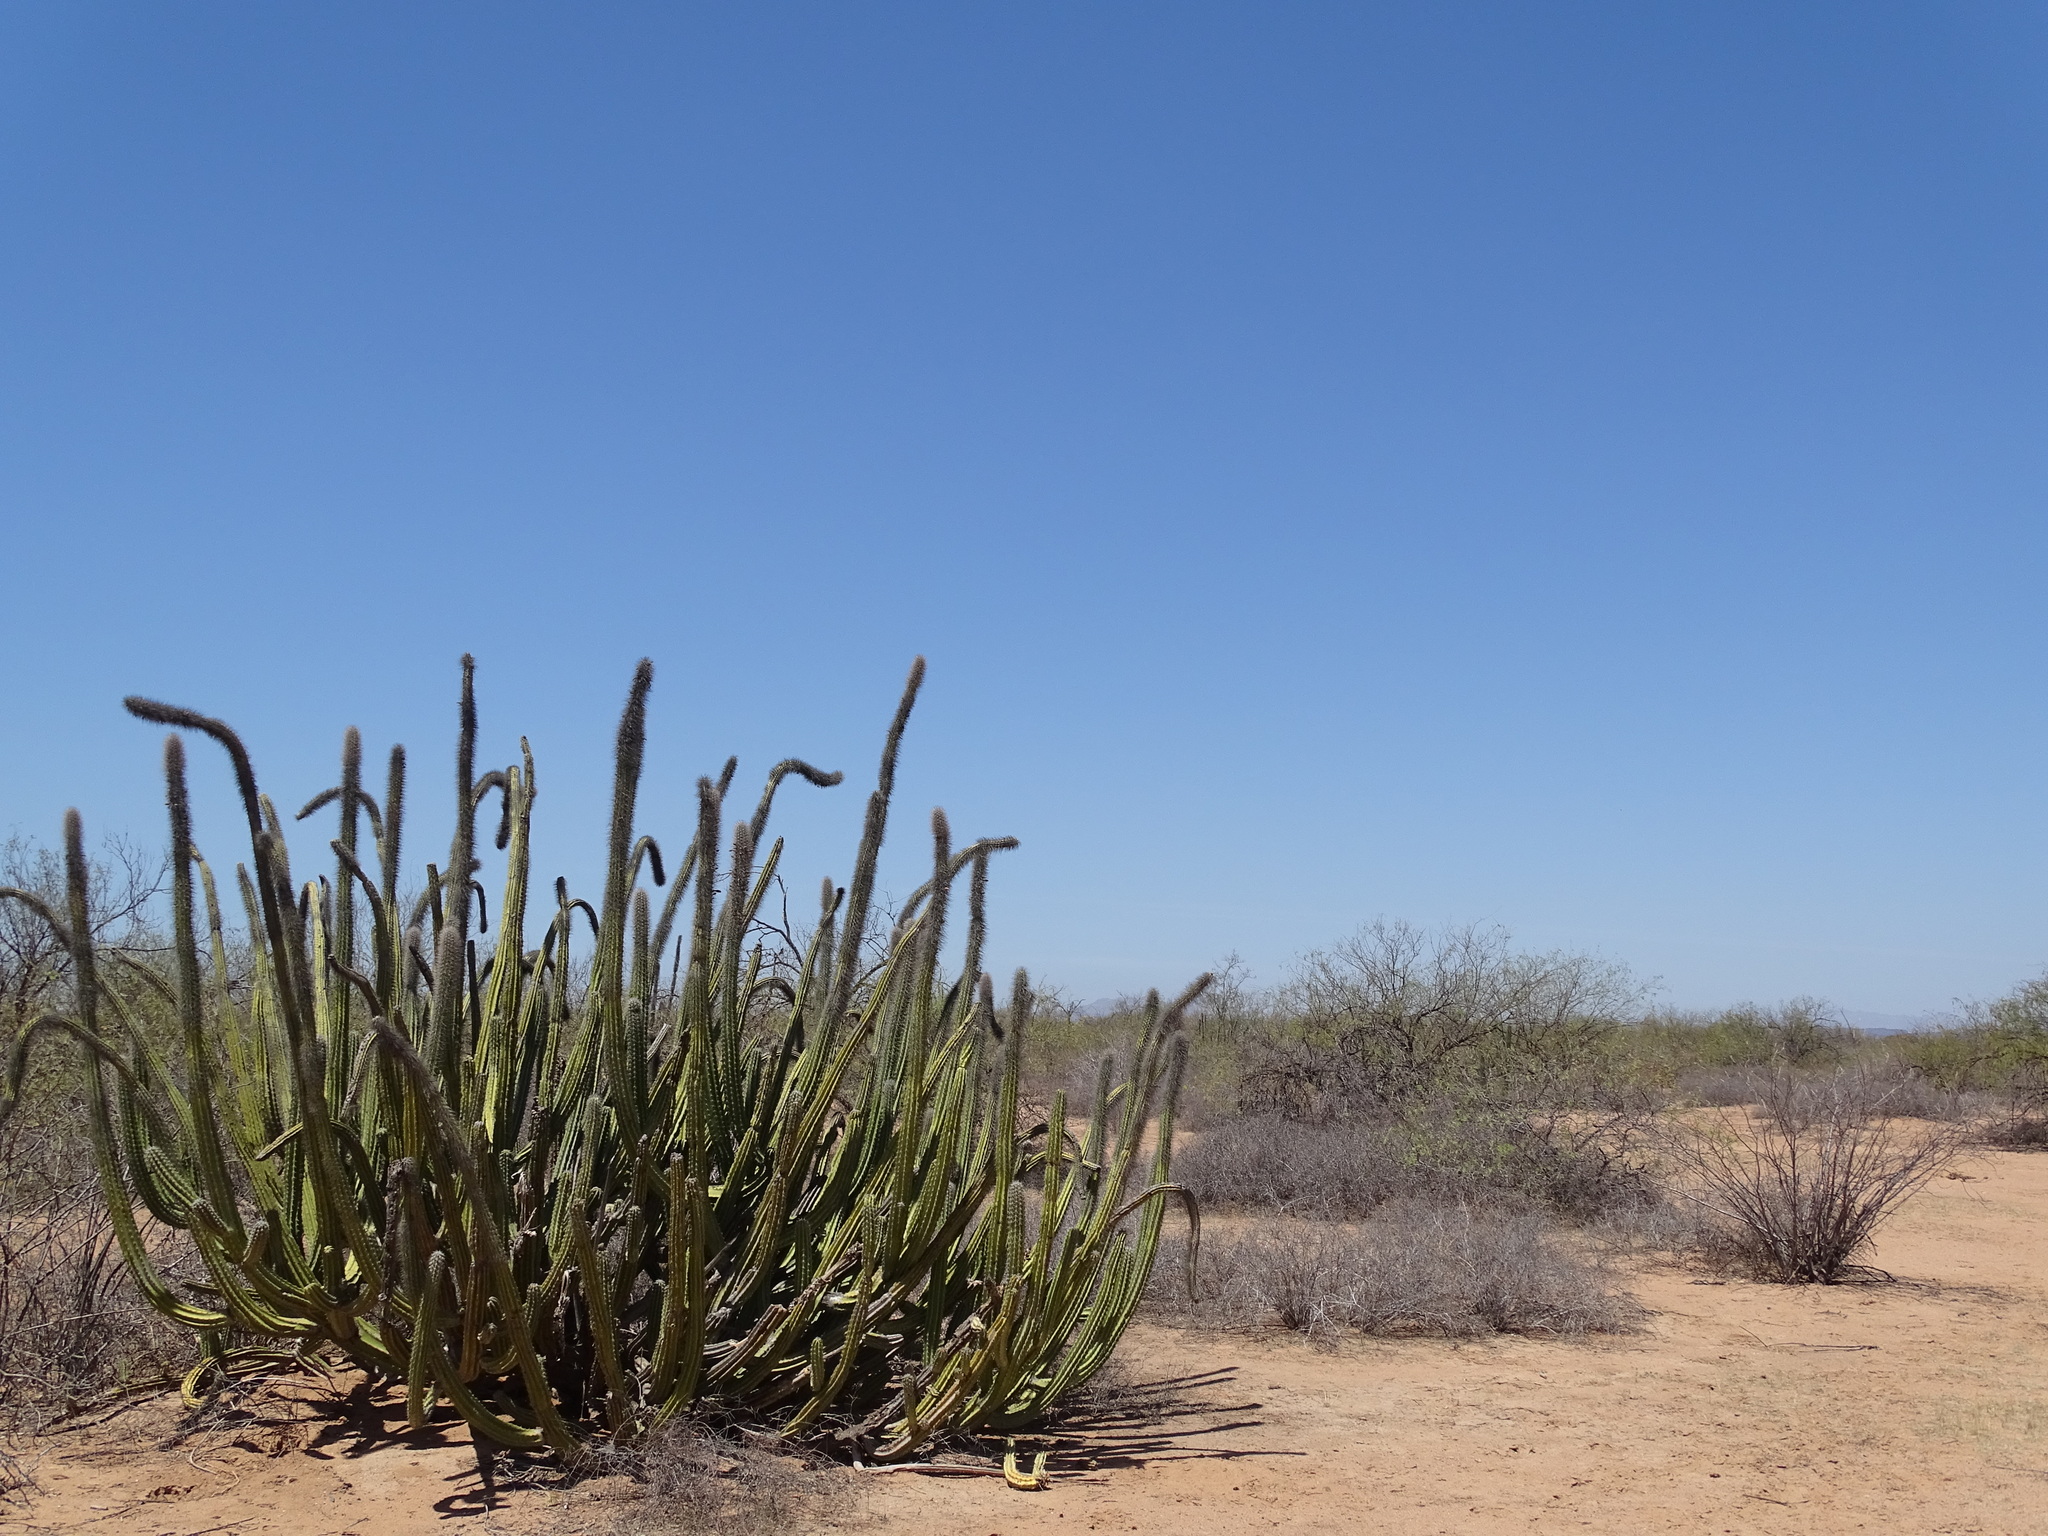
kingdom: Plantae
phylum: Tracheophyta
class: Magnoliopsida
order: Caryophyllales
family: Cactaceae
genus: Pachycereus
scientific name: Pachycereus schottii
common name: Senita cactus
